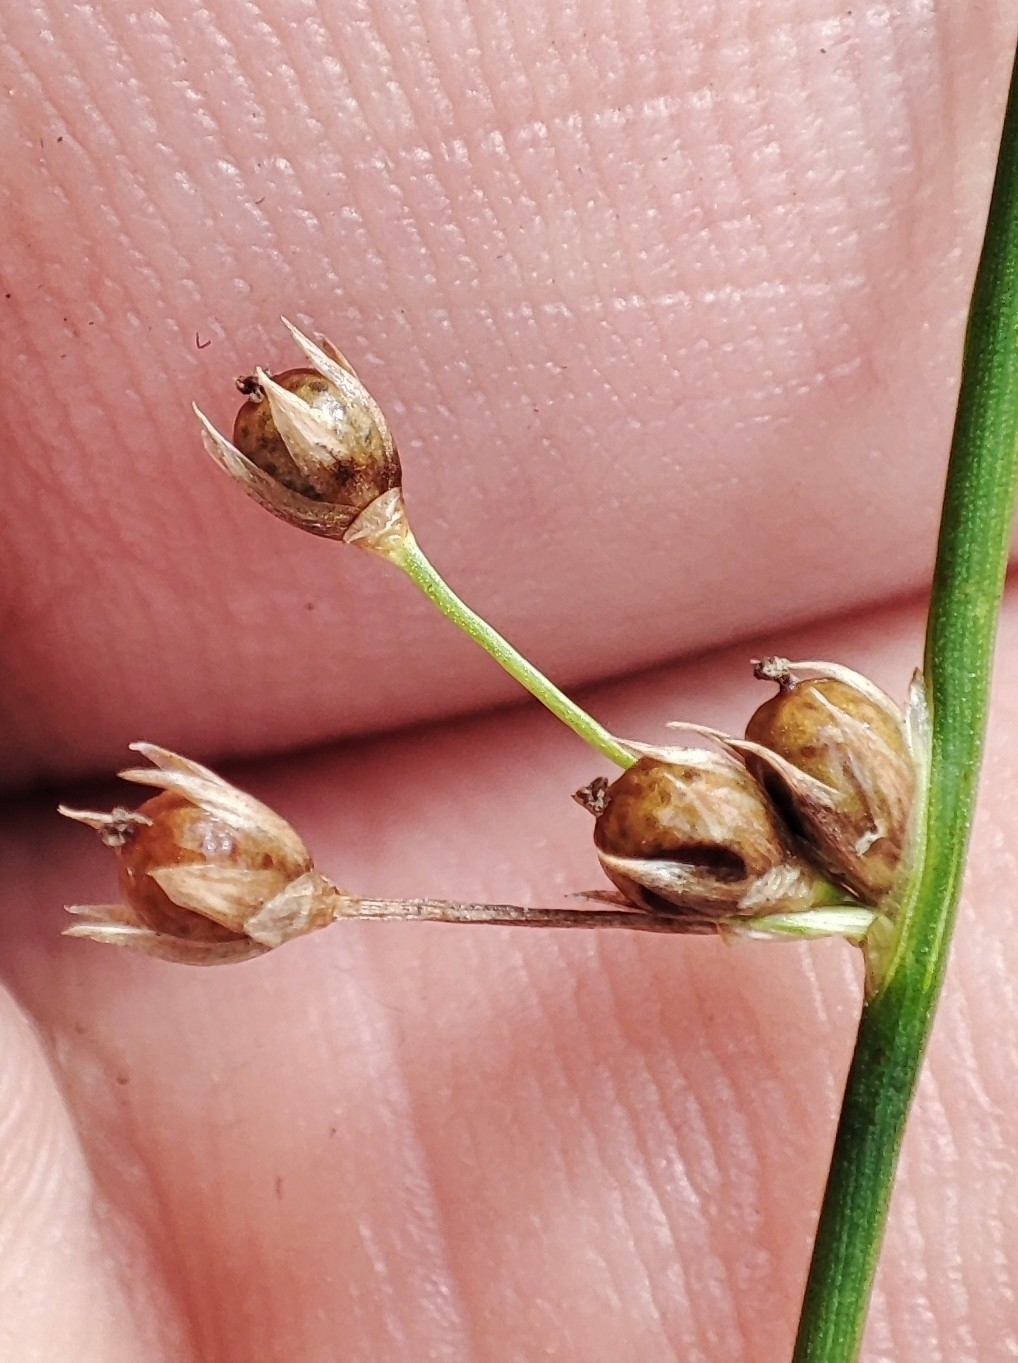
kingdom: Plantae
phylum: Tracheophyta
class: Liliopsida
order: Poales
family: Juncaceae
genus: Juncus
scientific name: Juncus filiformis
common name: Thread rush
